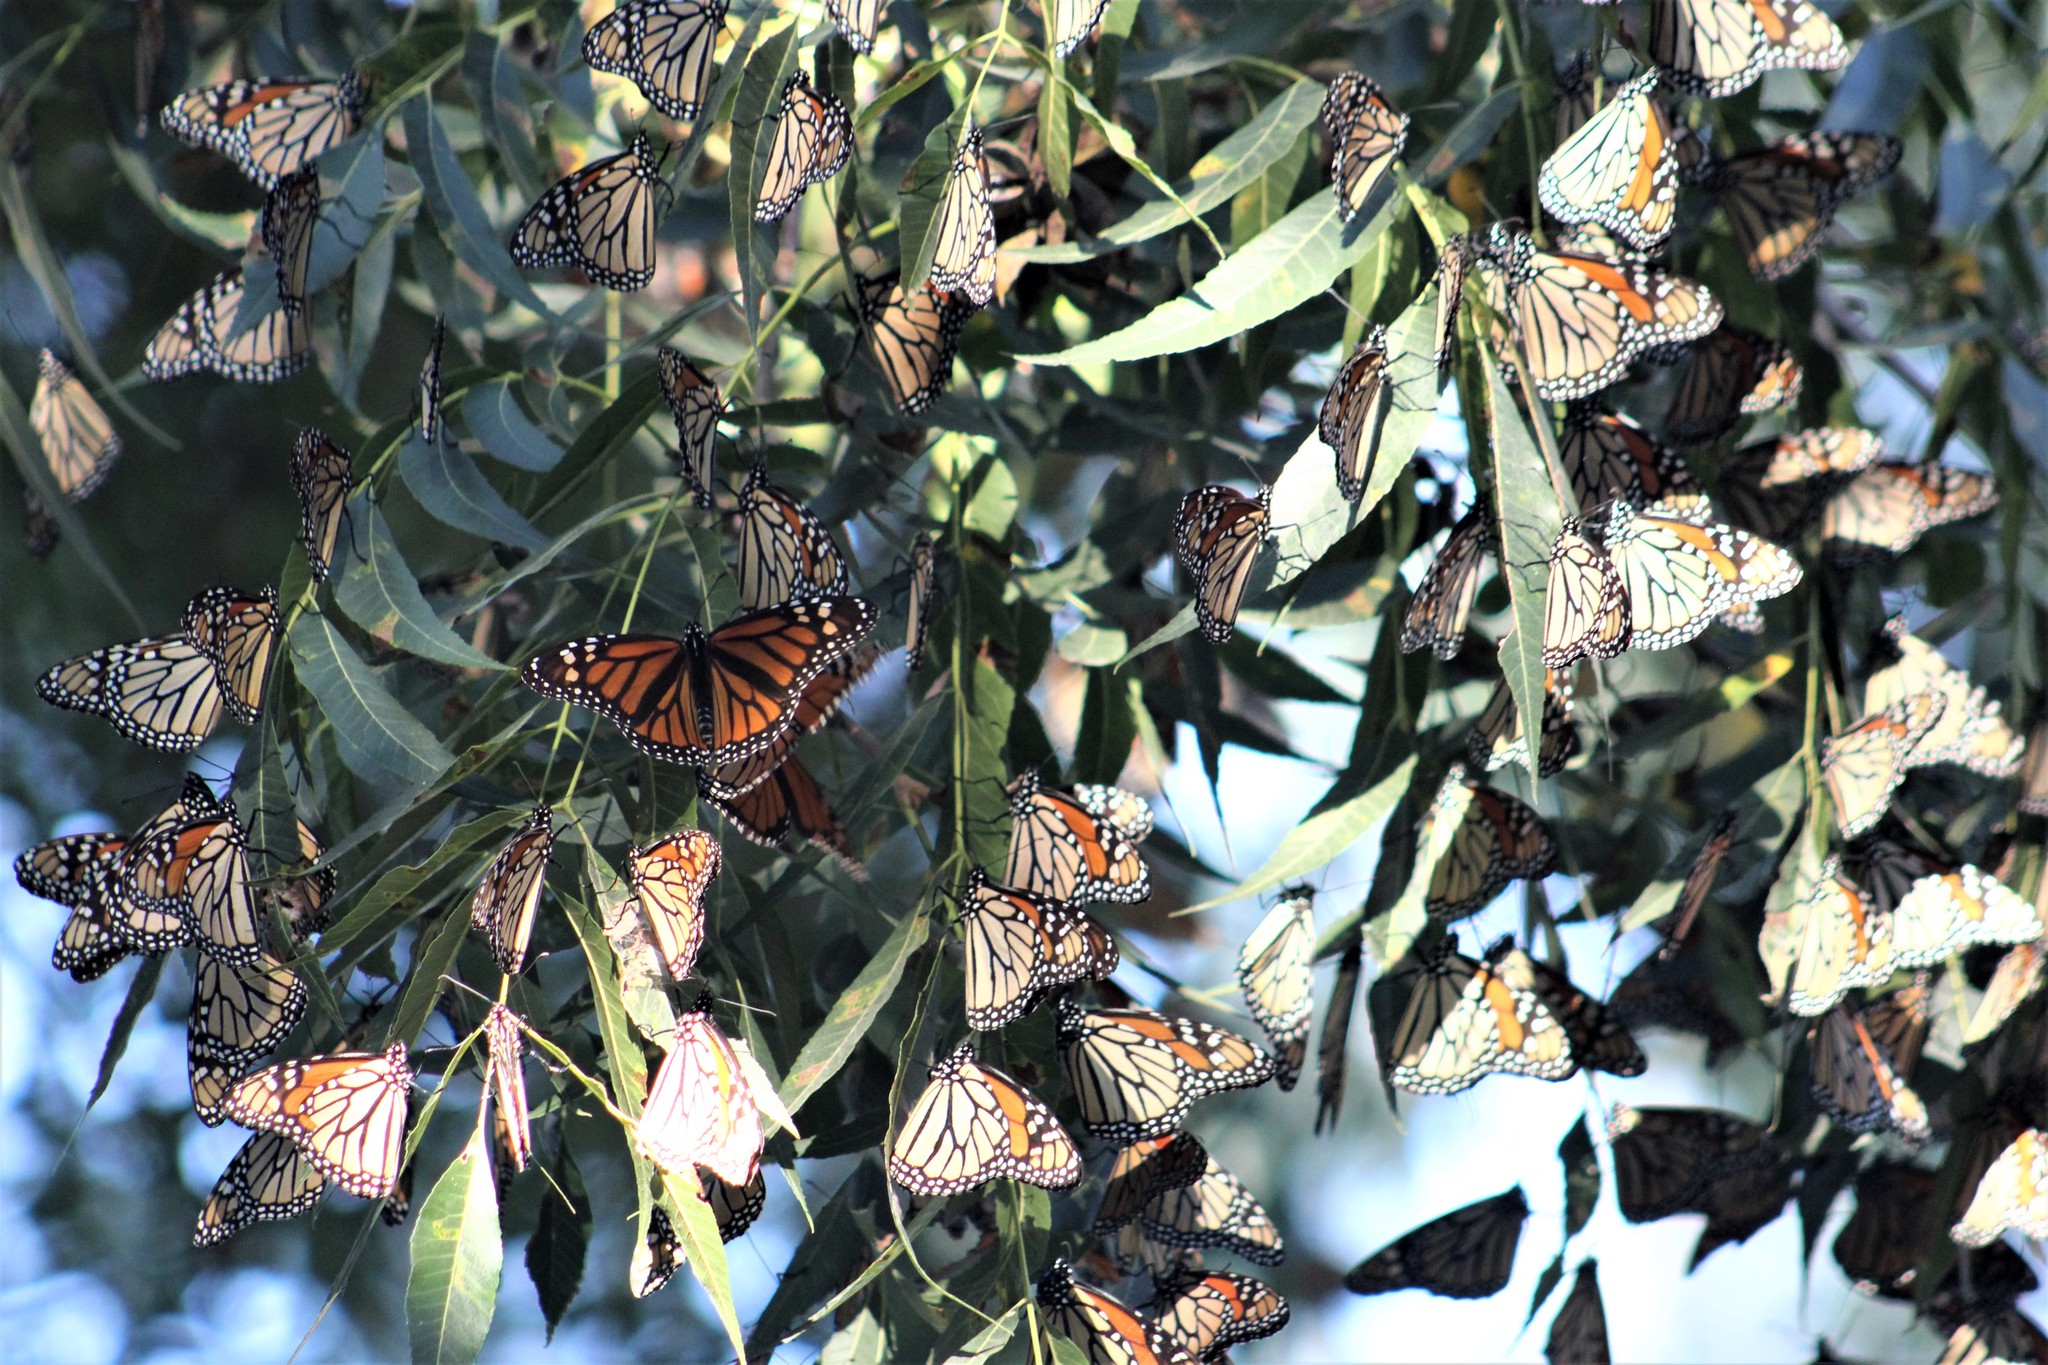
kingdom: Animalia
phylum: Arthropoda
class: Insecta
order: Lepidoptera
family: Nymphalidae
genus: Danaus
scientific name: Danaus plexippus
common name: Monarch
